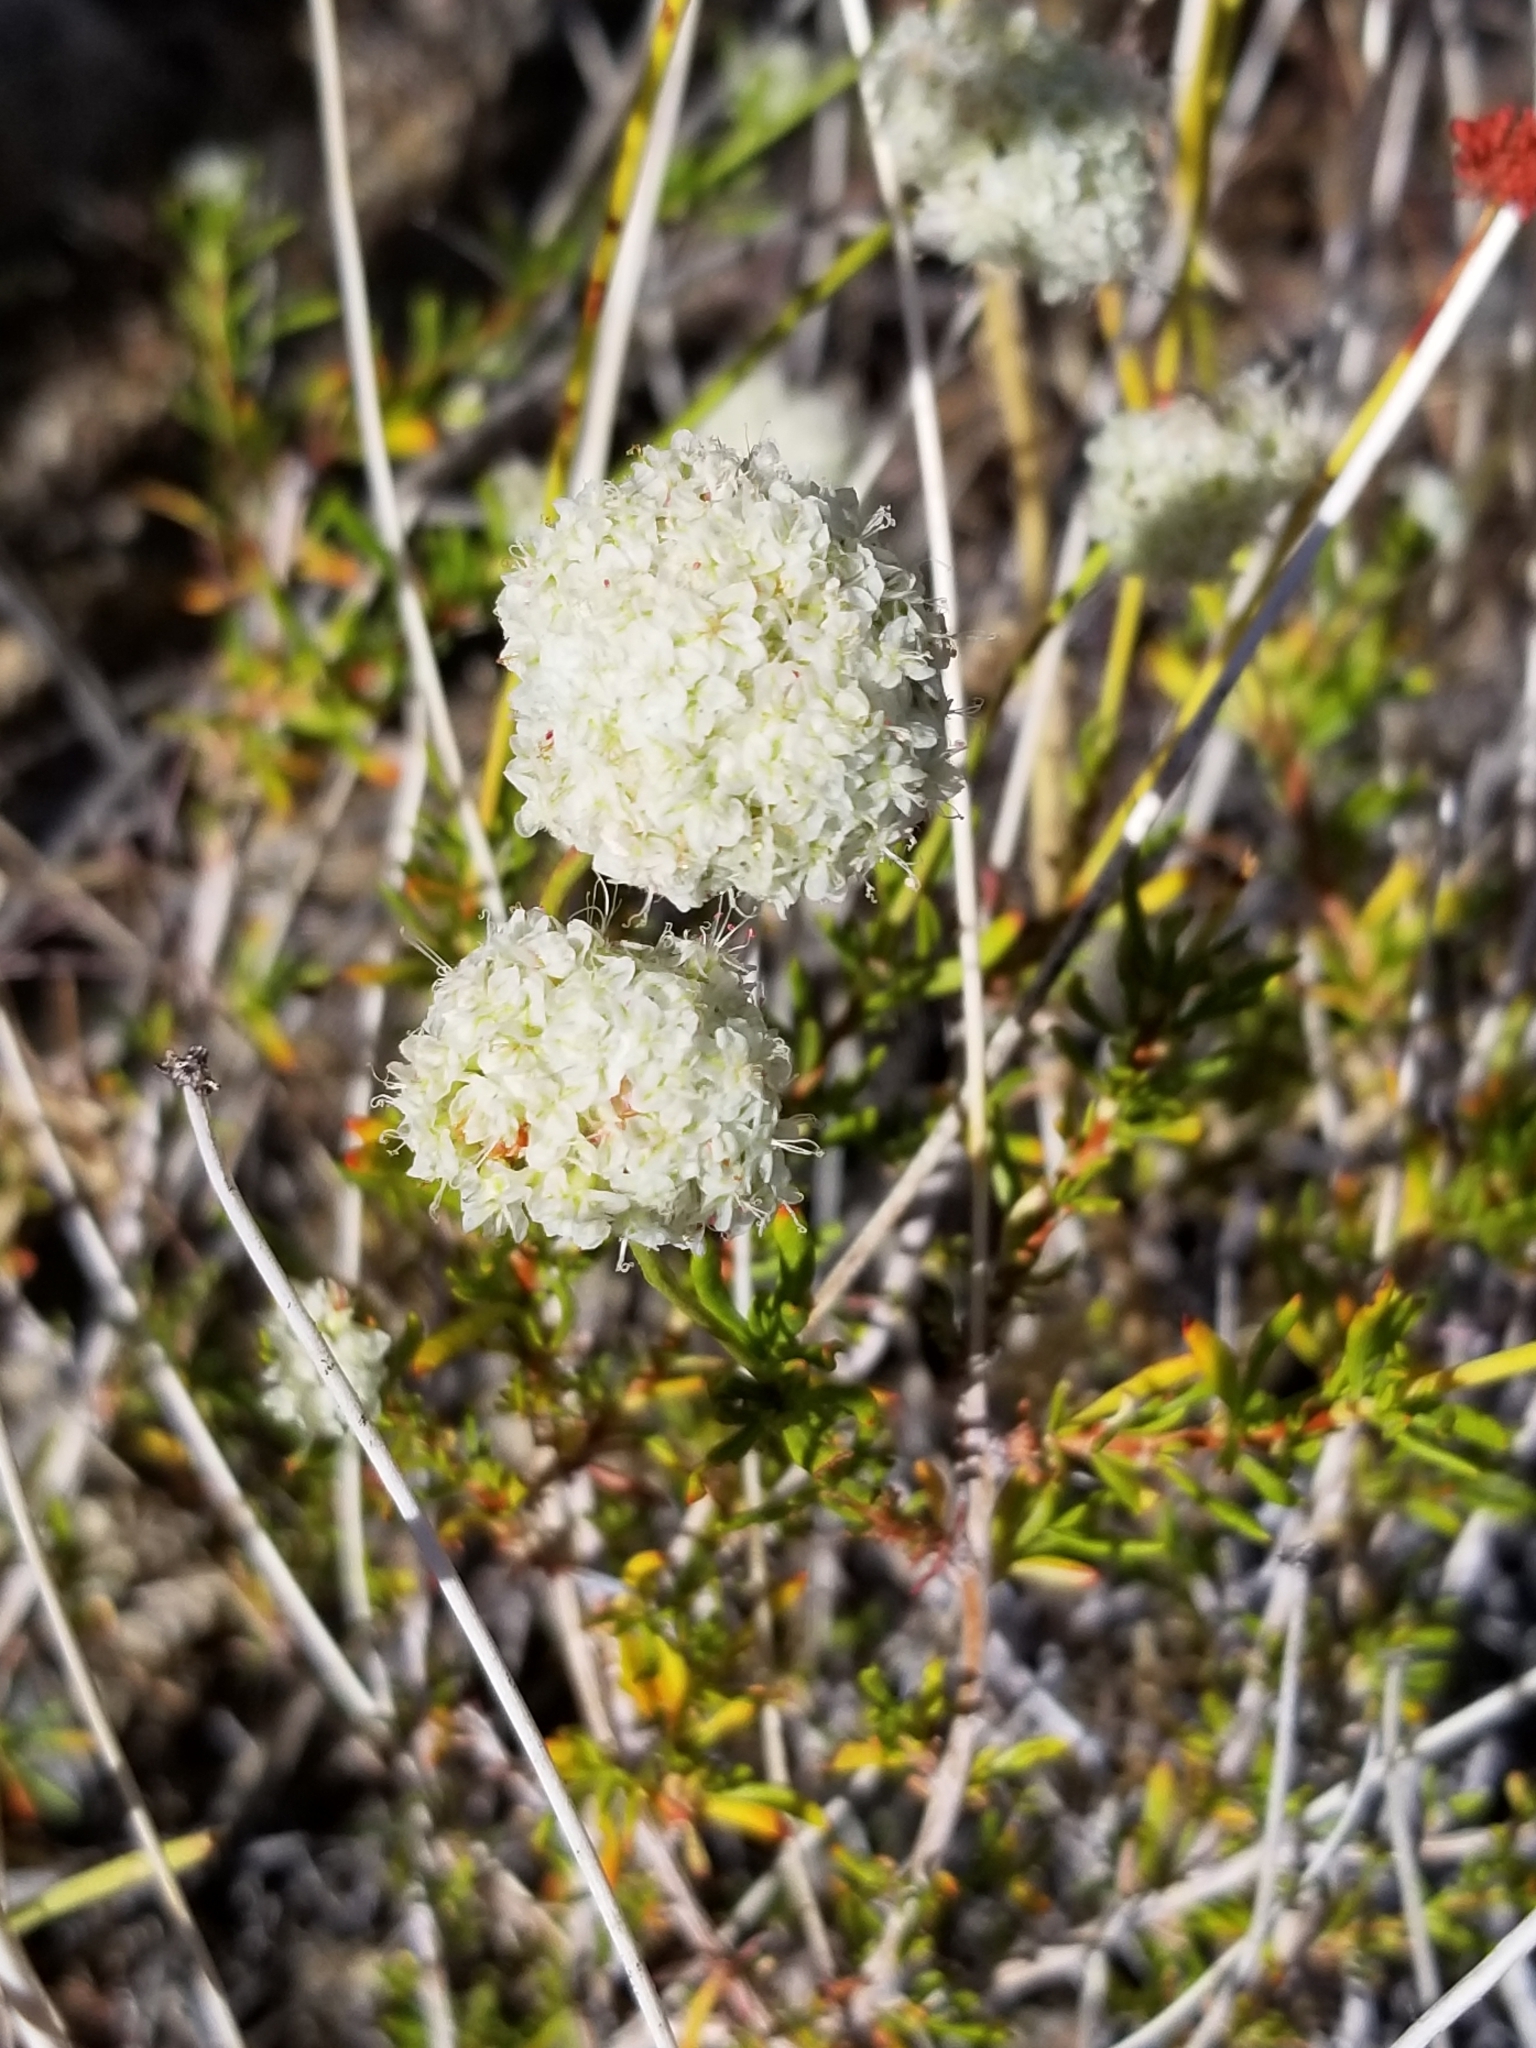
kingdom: Plantae
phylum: Tracheophyta
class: Magnoliopsida
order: Caryophyllales
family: Polygonaceae
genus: Eriogonum
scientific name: Eriogonum fasciculatum
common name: California wild buckwheat
